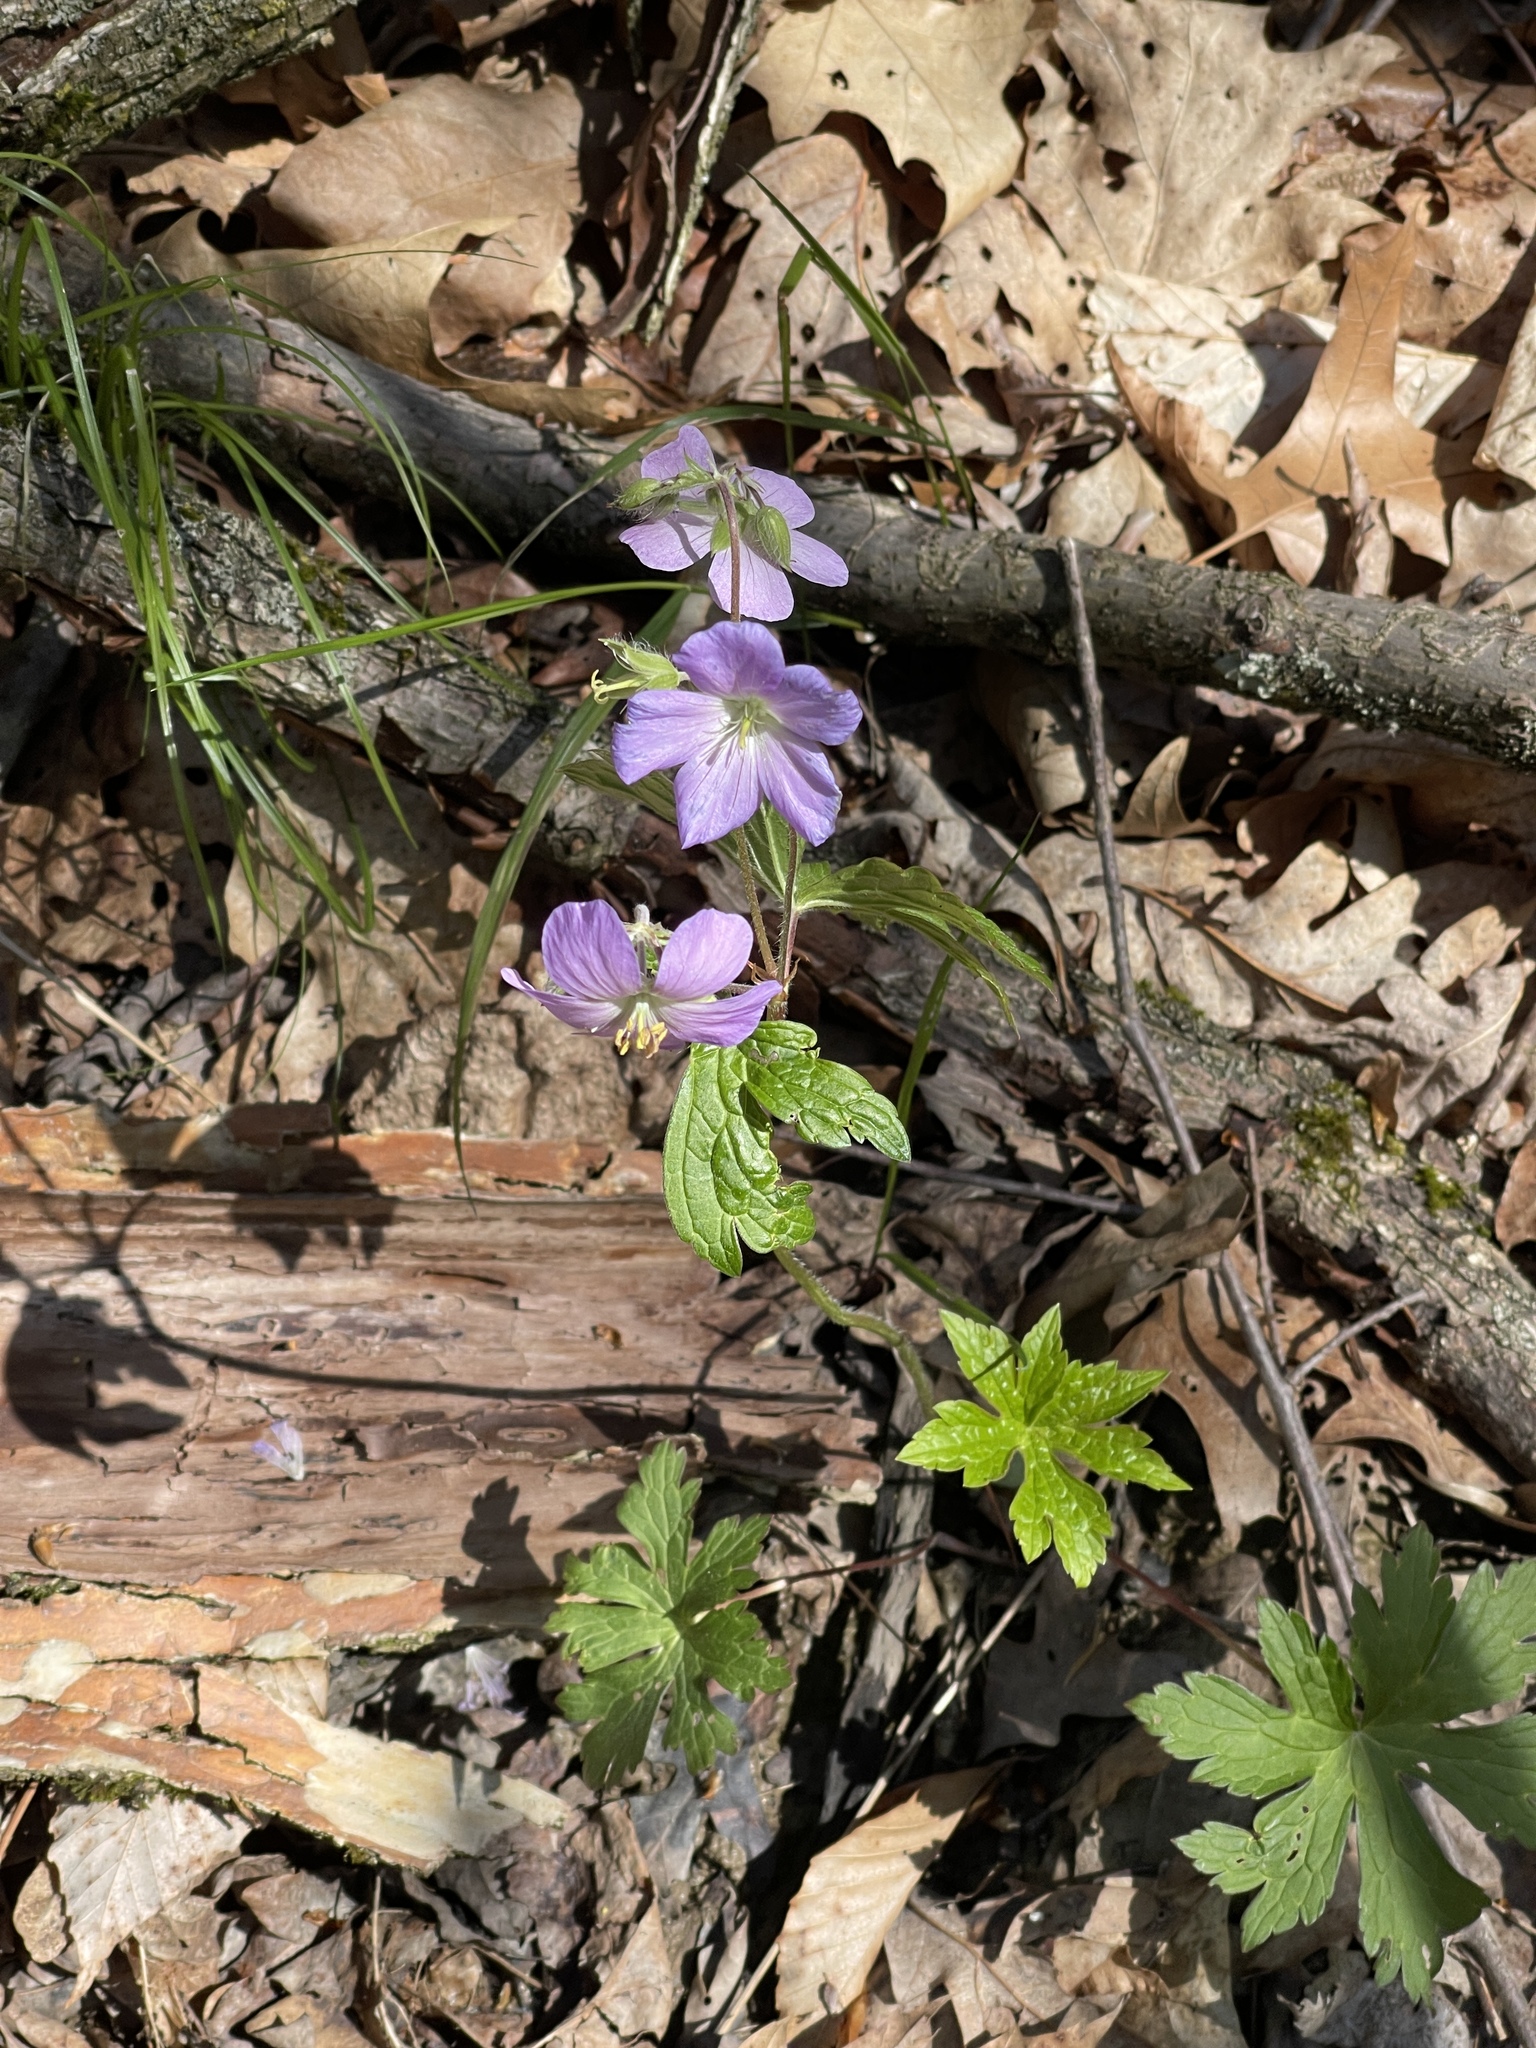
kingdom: Plantae
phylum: Tracheophyta
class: Magnoliopsida
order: Geraniales
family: Geraniaceae
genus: Geranium
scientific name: Geranium maculatum
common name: Spotted geranium
